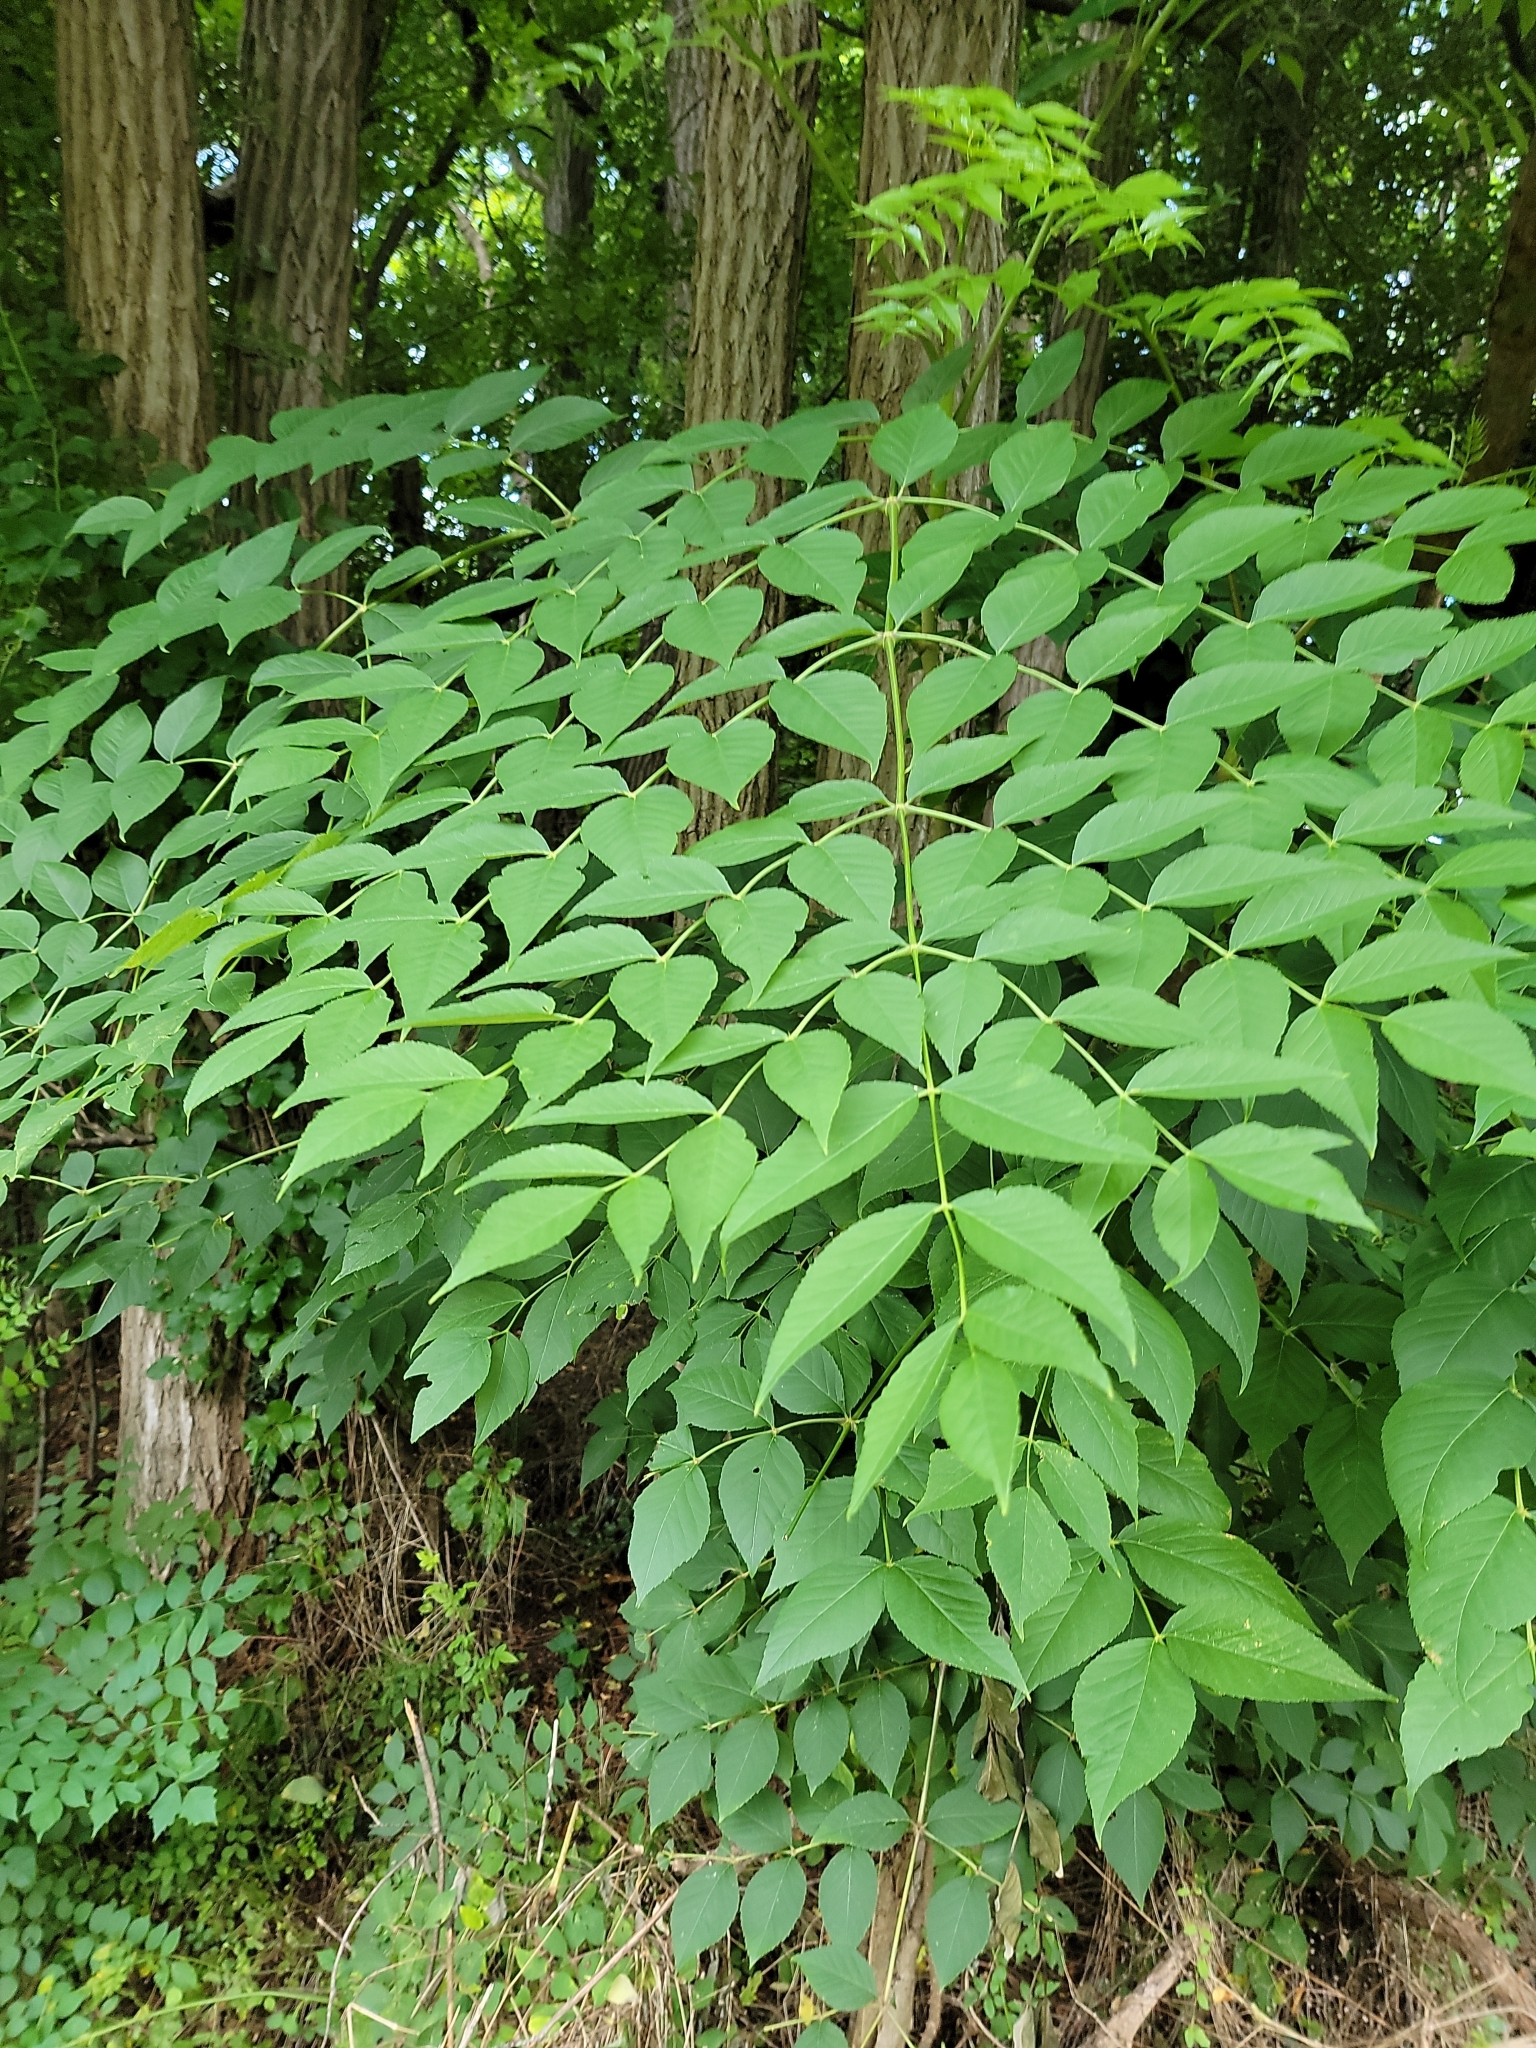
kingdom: Plantae
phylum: Tracheophyta
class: Magnoliopsida
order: Apiales
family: Araliaceae
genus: Aralia
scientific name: Aralia elata
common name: Japanese angelica-tree
